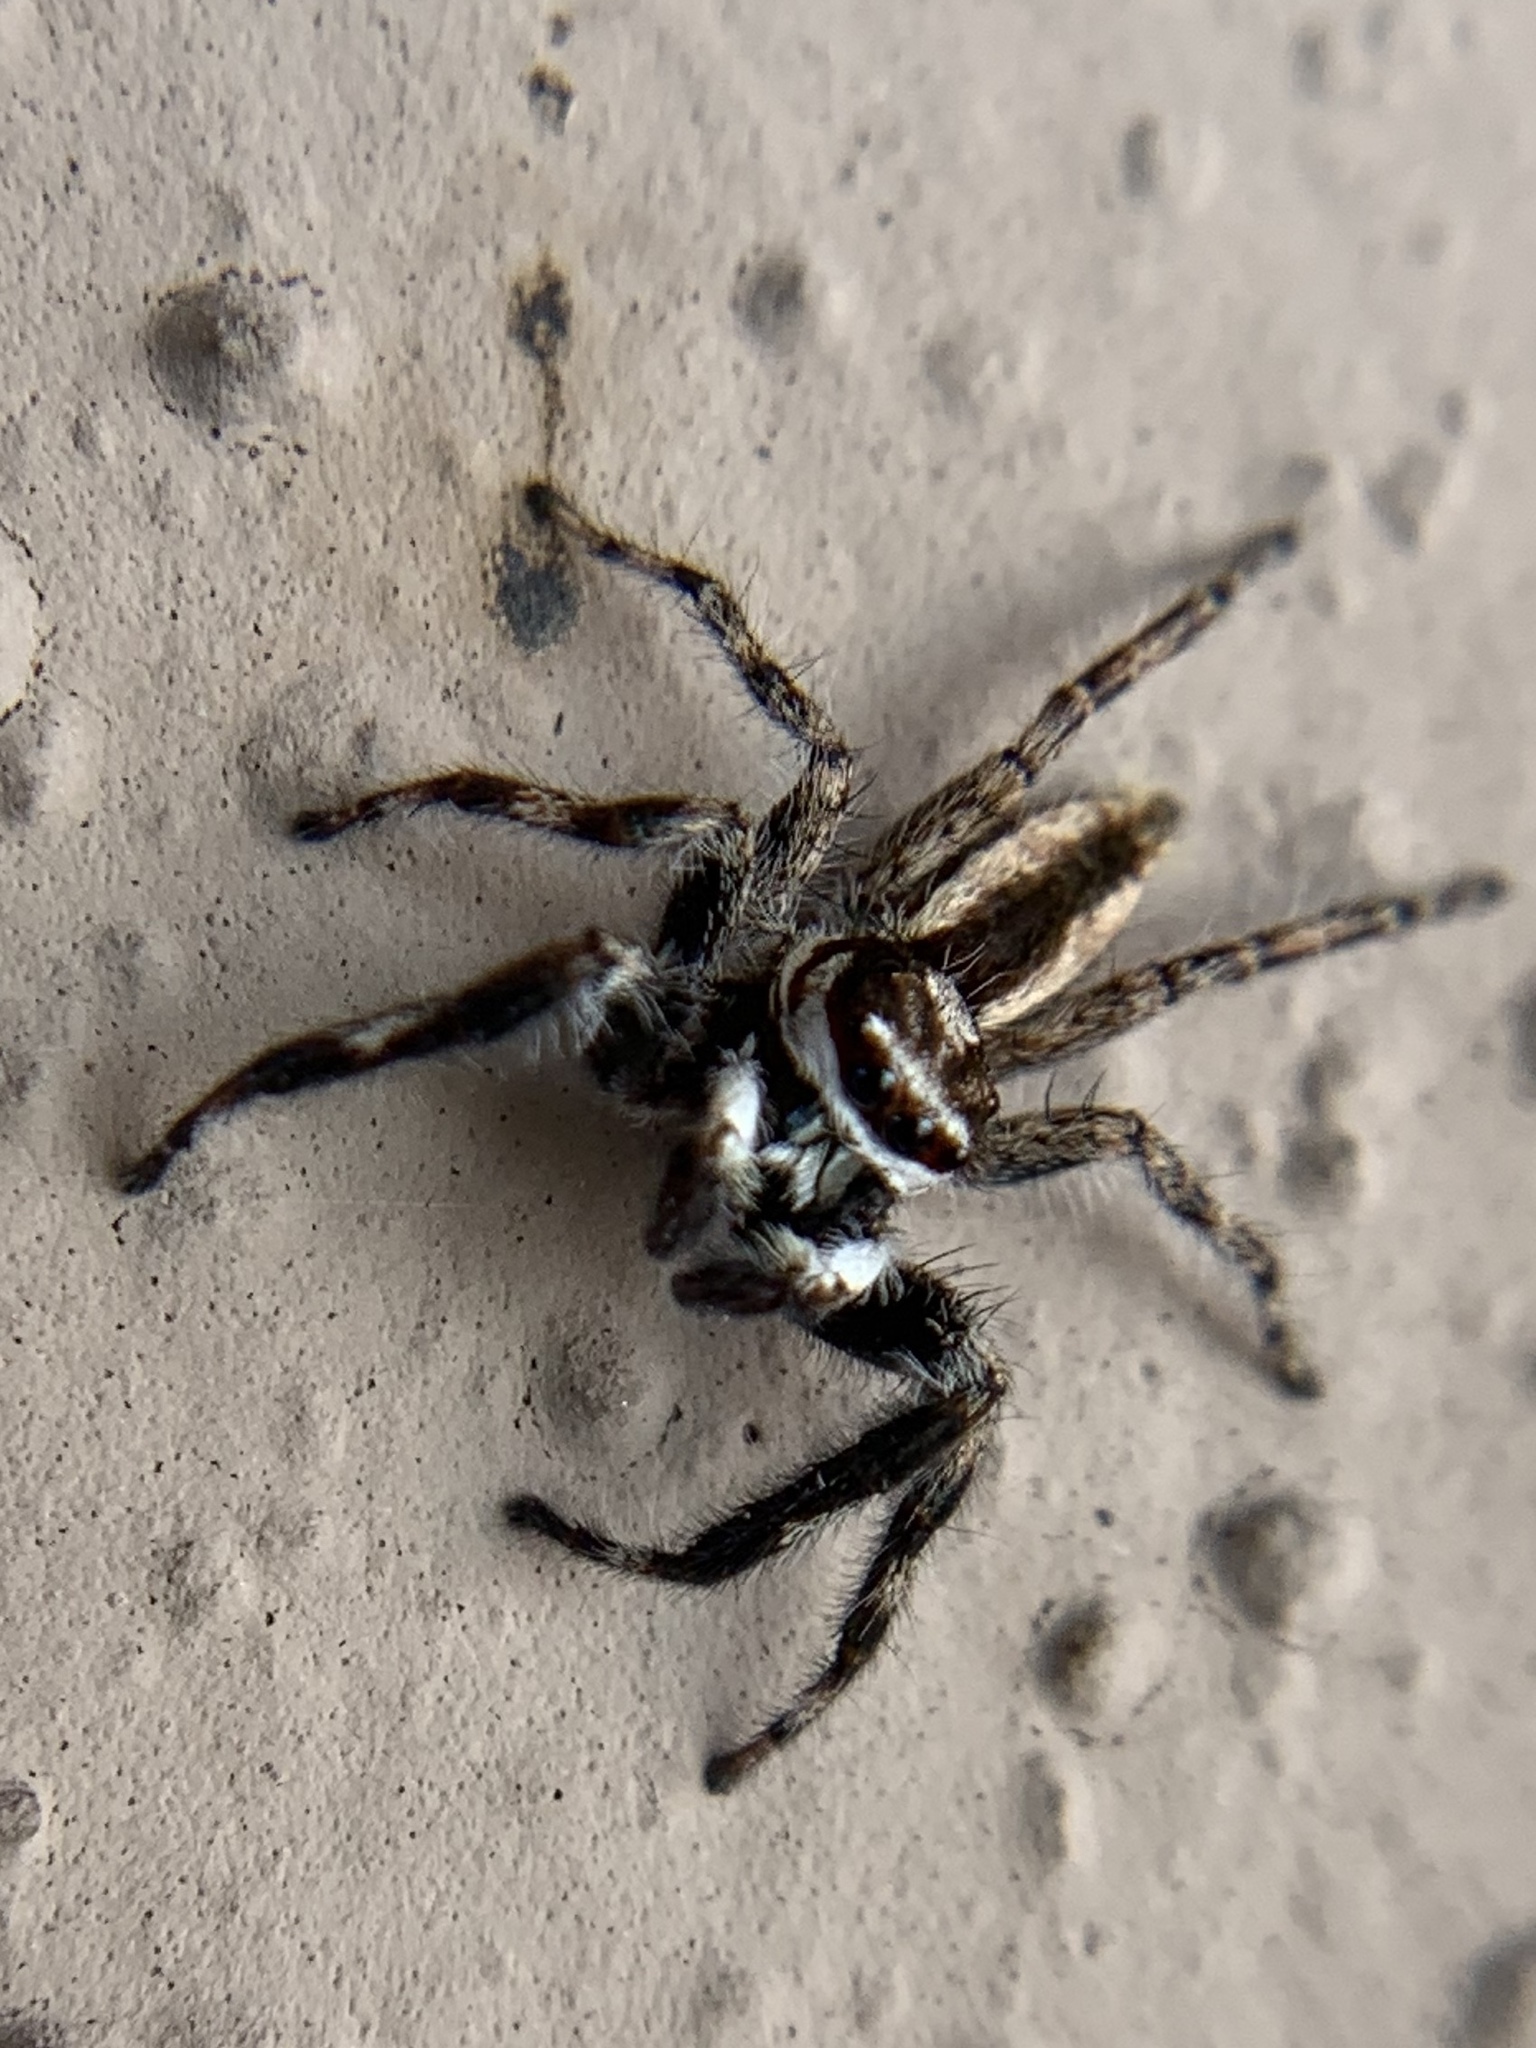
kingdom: Animalia
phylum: Arthropoda
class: Arachnida
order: Araneae
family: Salticidae
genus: Menemerus
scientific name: Menemerus bivittatus
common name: Gray wall jumper
